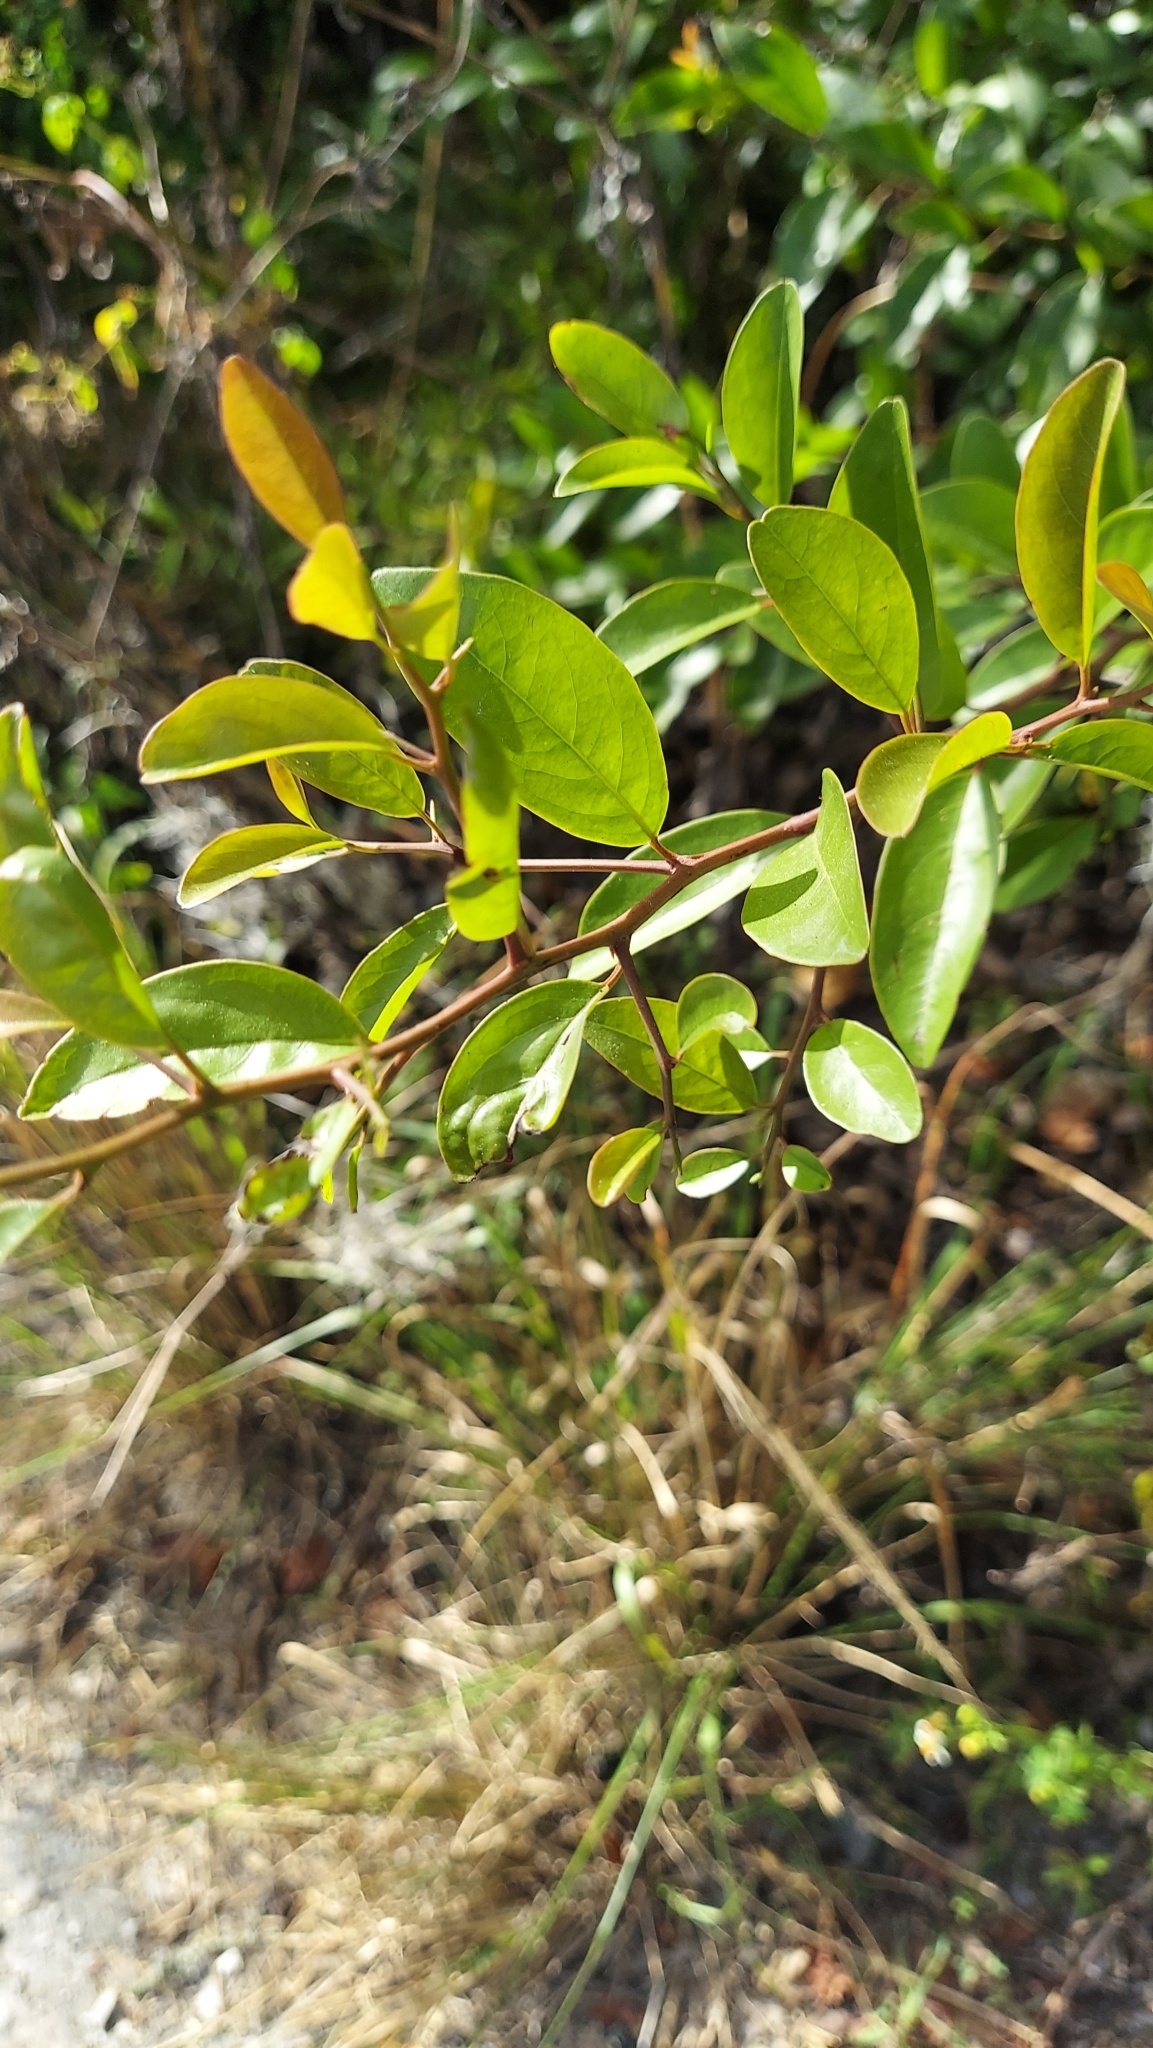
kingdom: Plantae
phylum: Tracheophyta
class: Magnoliopsida
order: Santalales
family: Ximeniaceae
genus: Ximenia
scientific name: Ximenia americana
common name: Tallowwood
